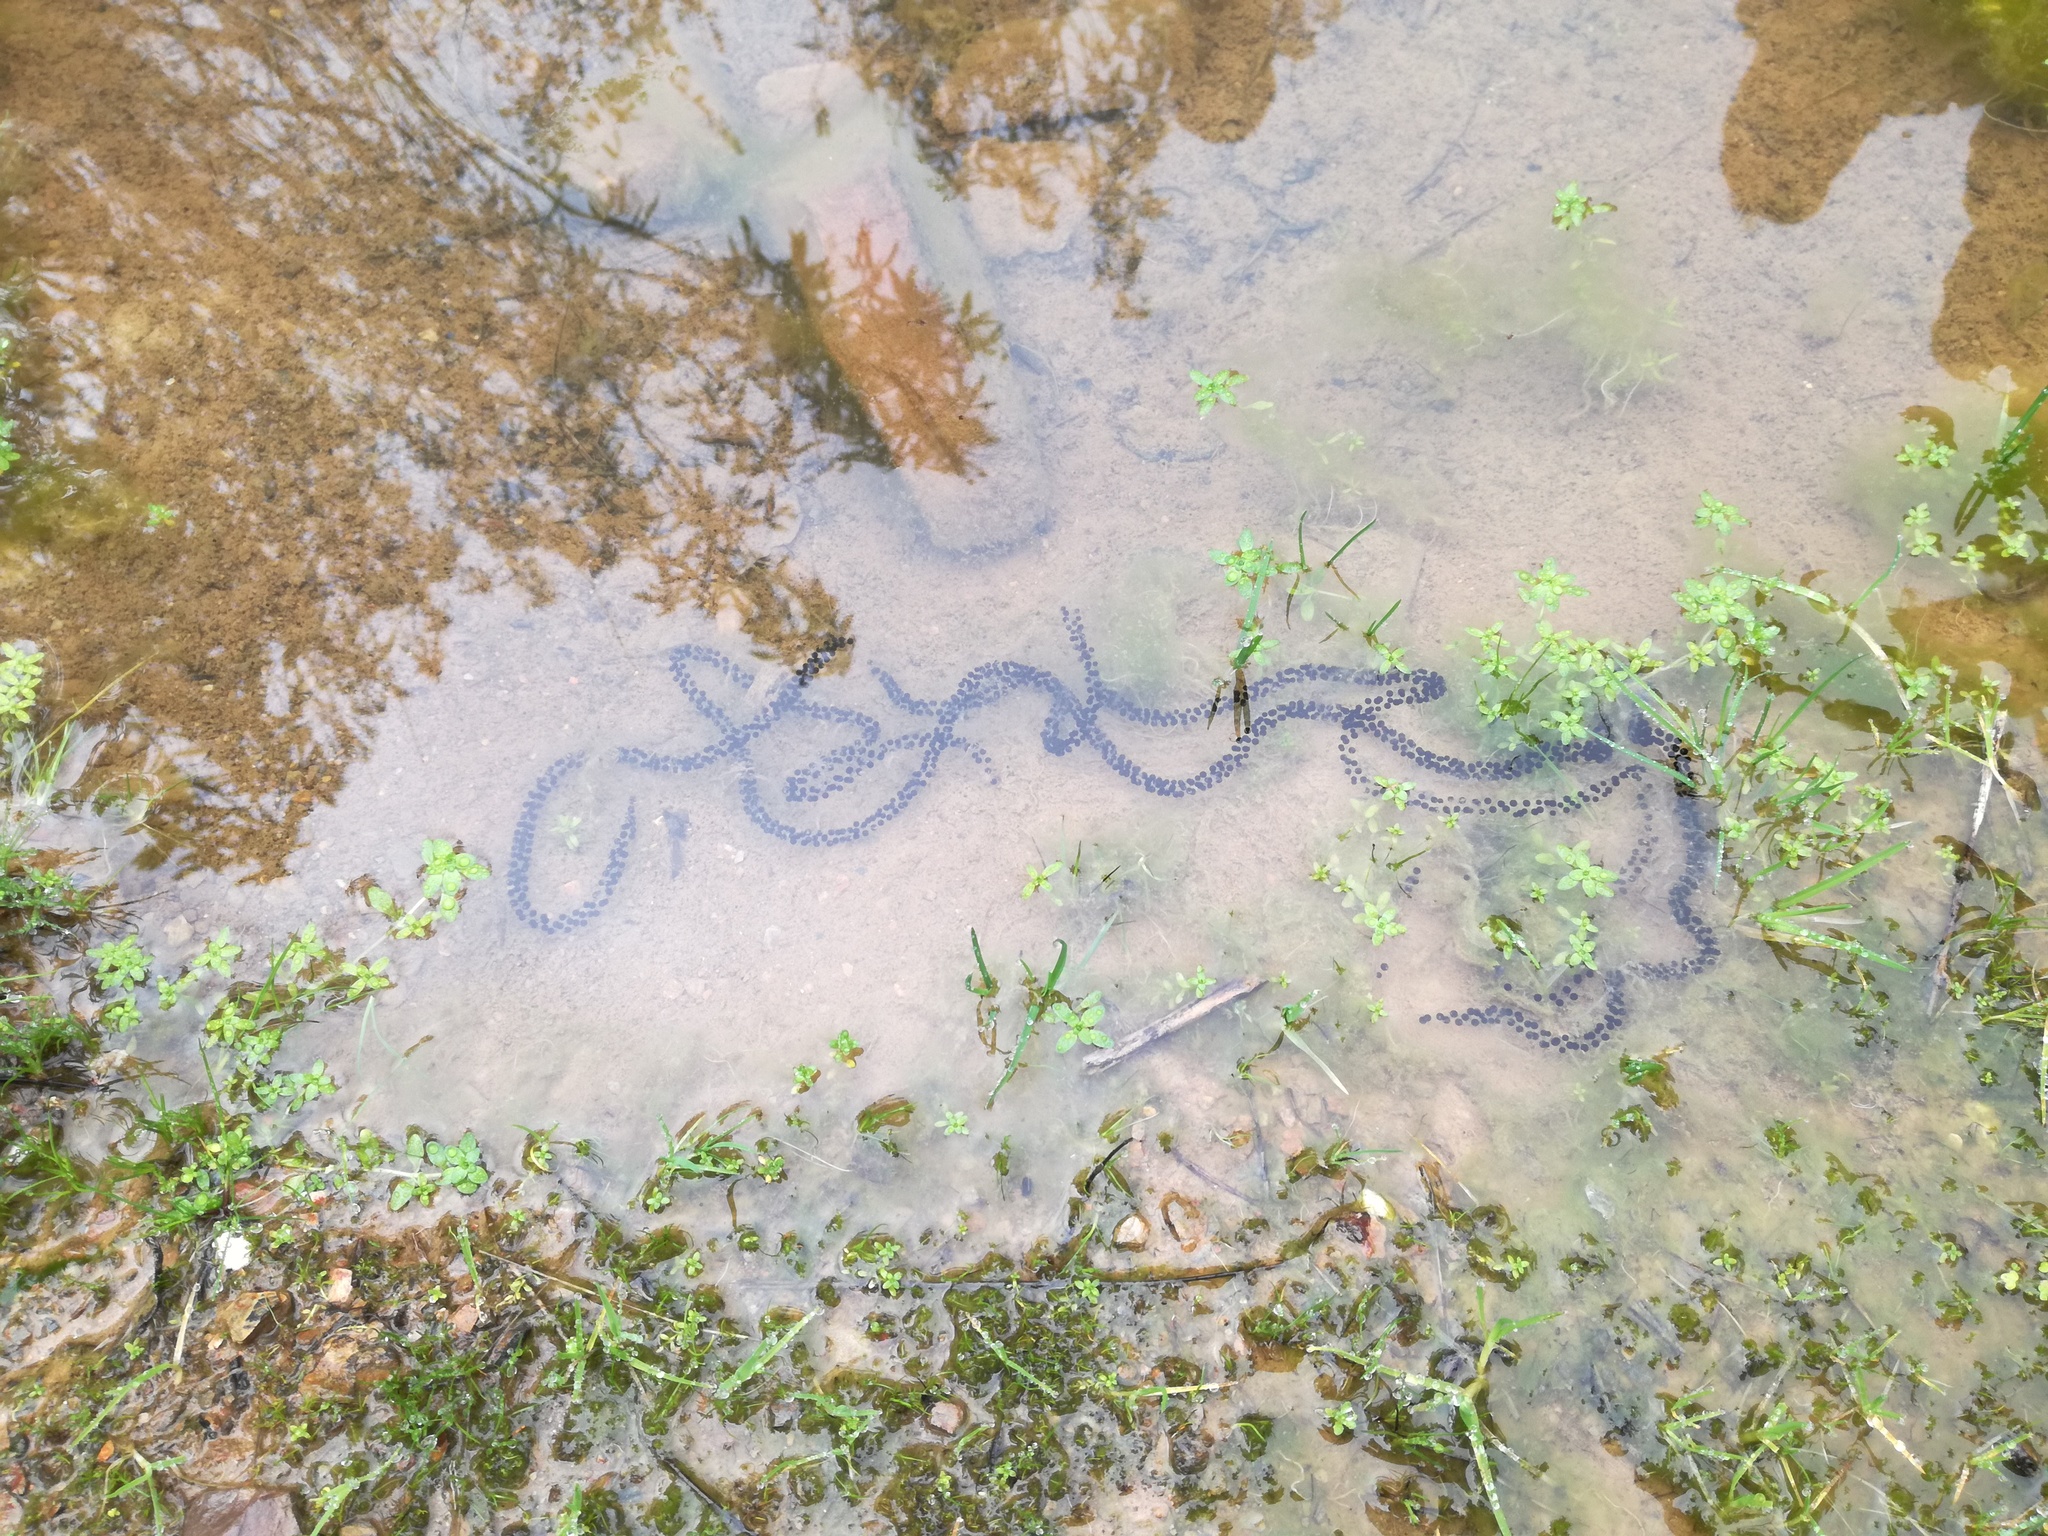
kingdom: Animalia
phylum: Chordata
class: Amphibia
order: Anura
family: Bufonidae
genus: Epidalea
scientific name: Epidalea calamita
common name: Natterjack toad
